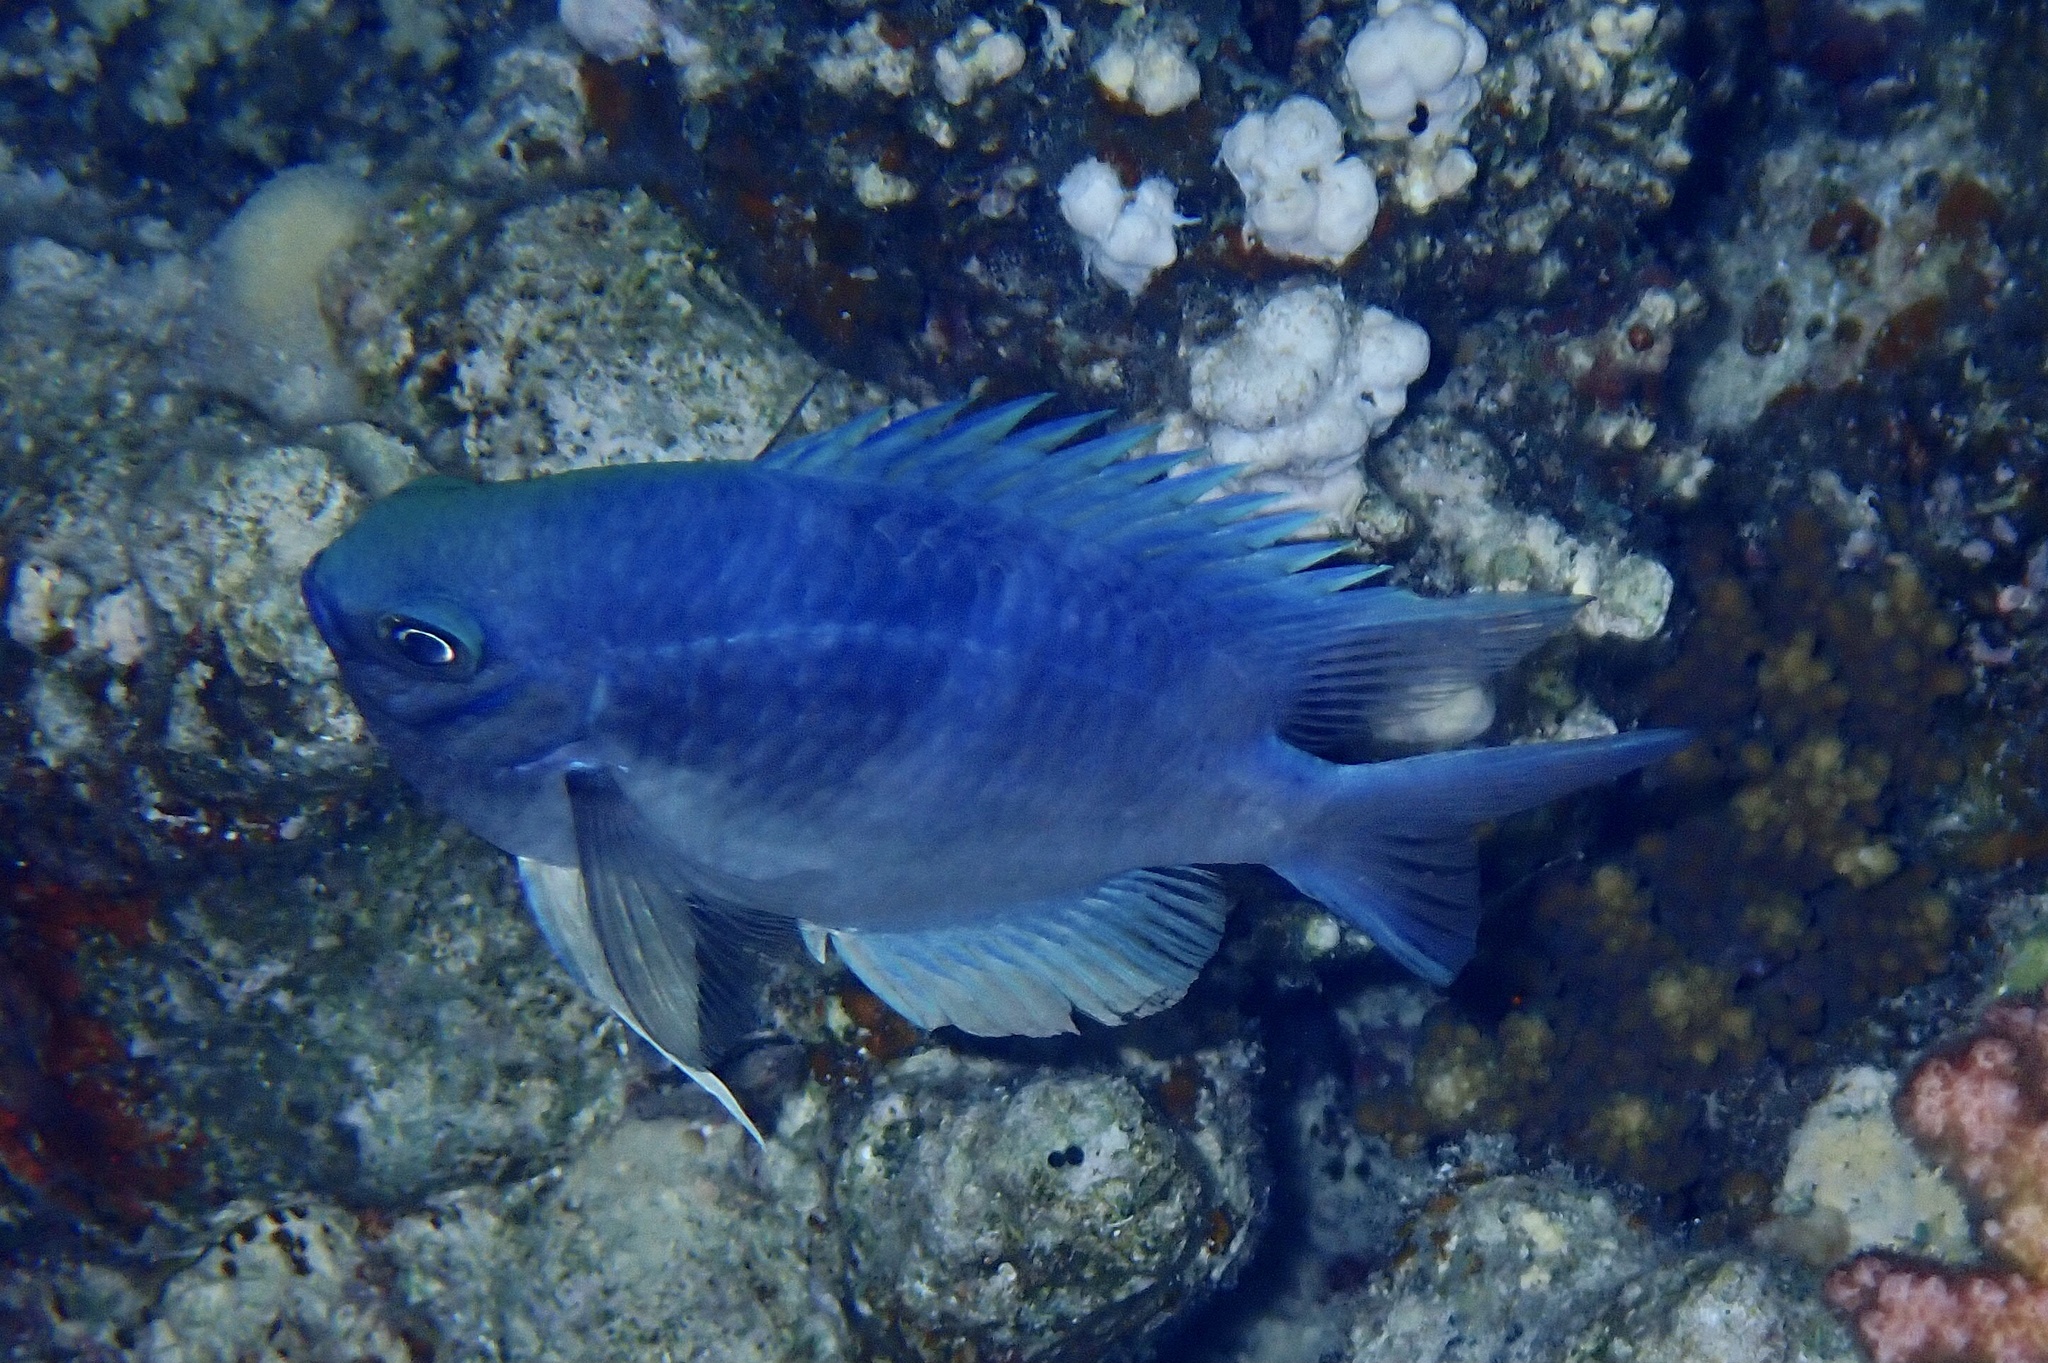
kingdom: Animalia
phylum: Chordata
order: Perciformes
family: Pomacentridae
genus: Amblyglyphidodon
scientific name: Amblyglyphidodon indicus
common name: Maldives damselfish
